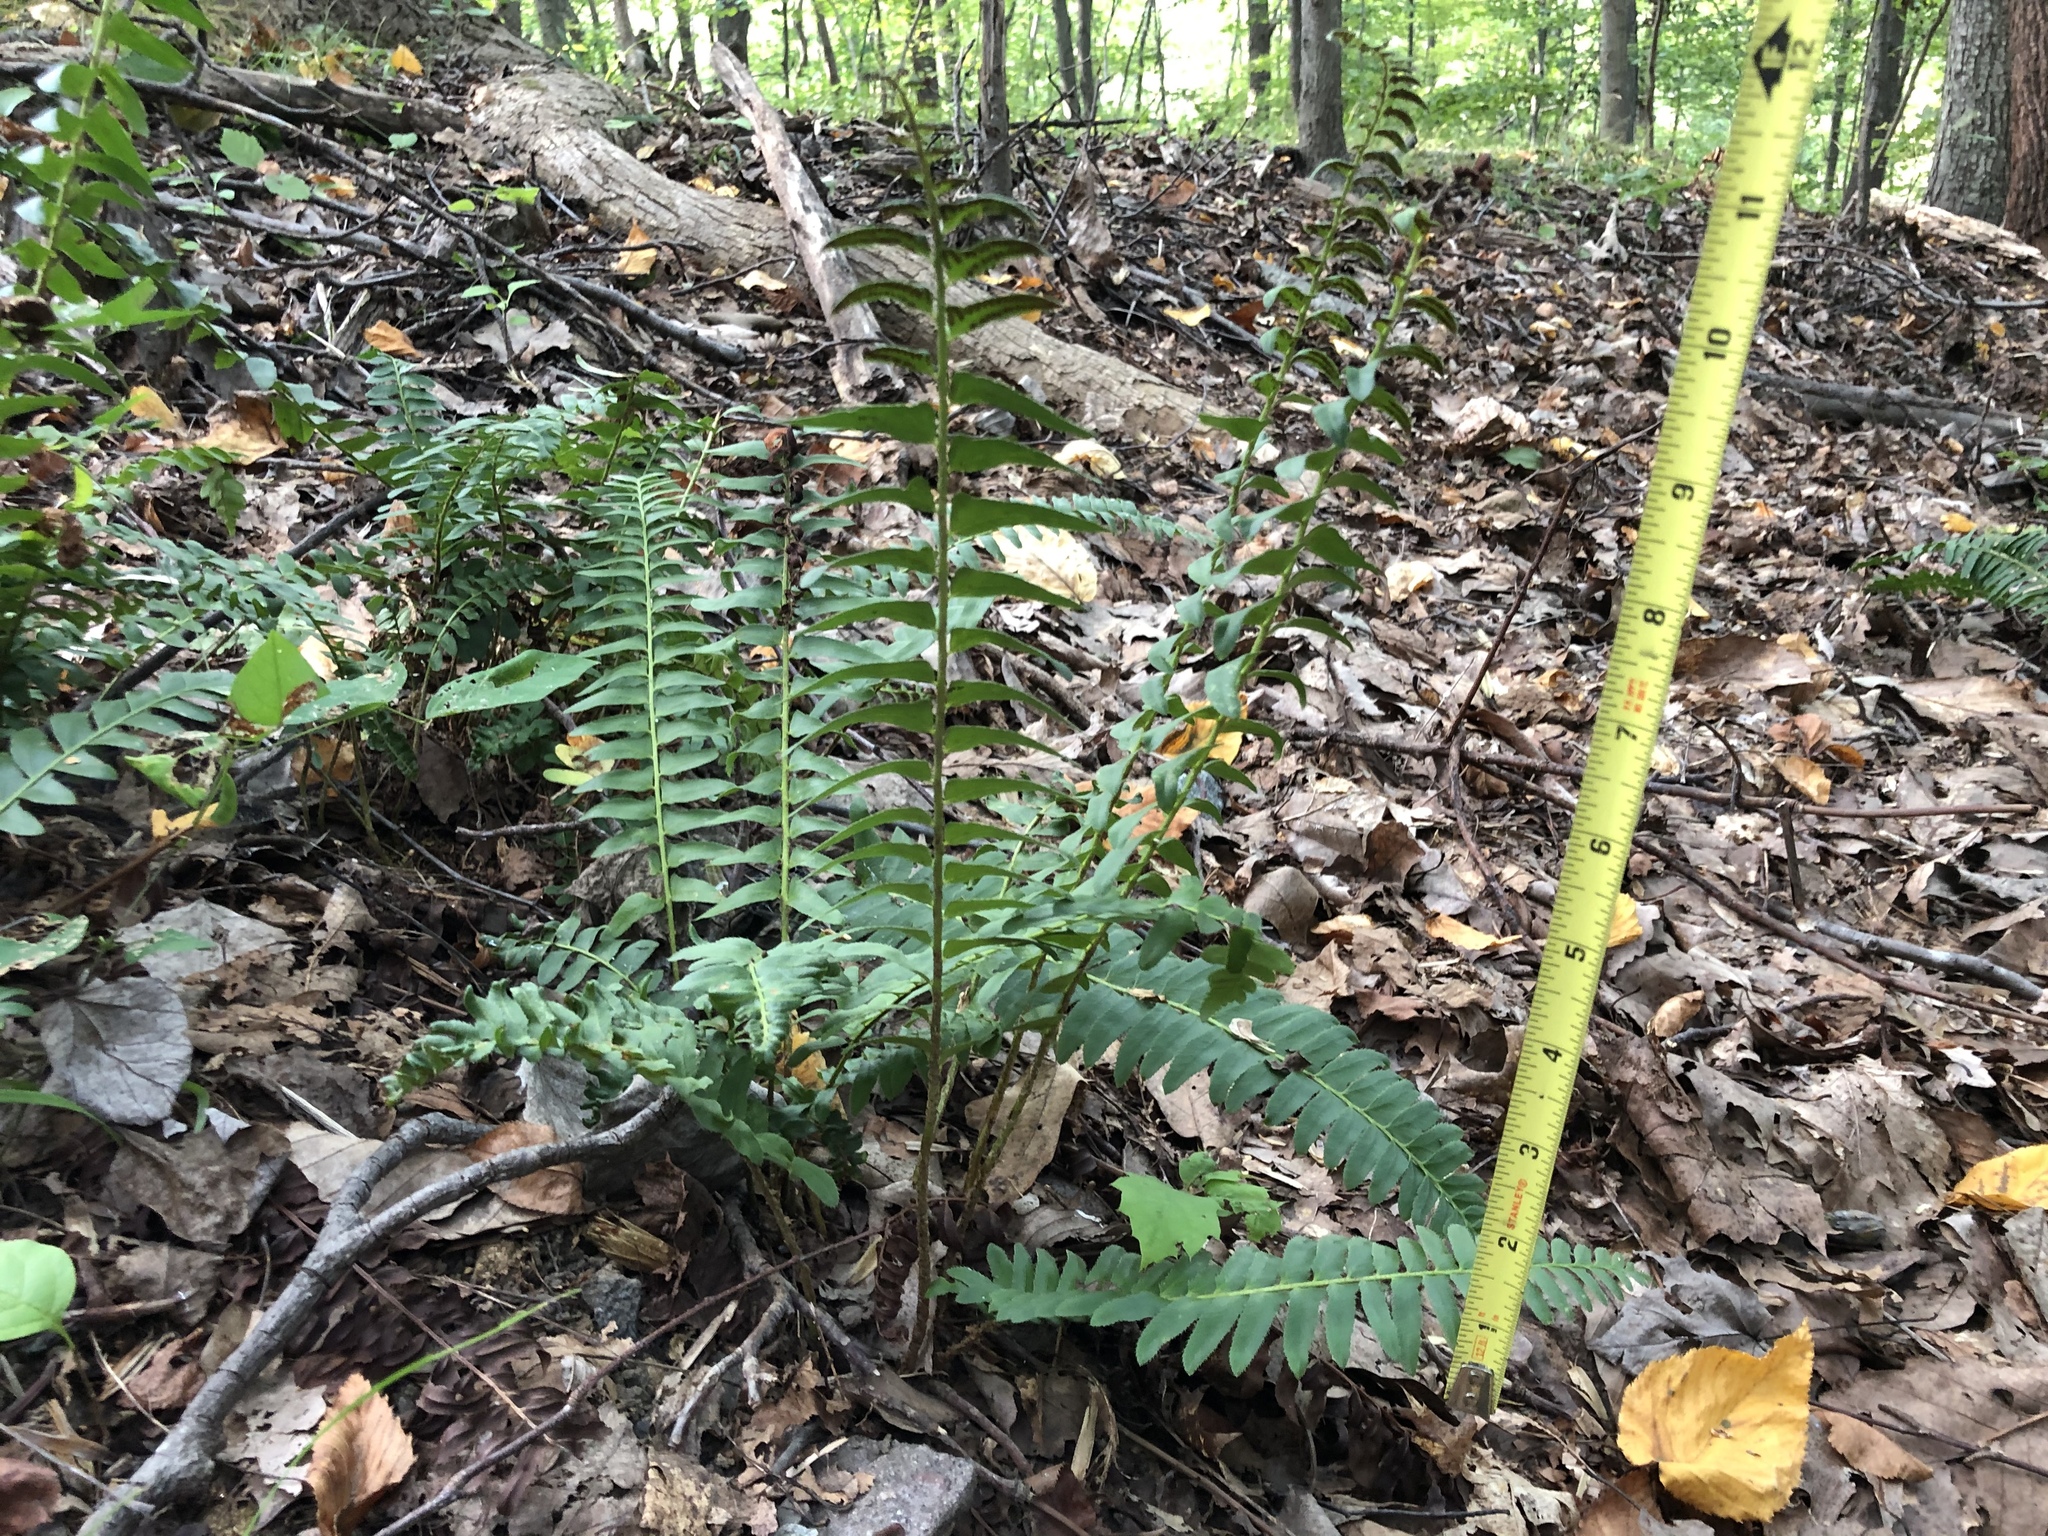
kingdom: Plantae
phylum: Tracheophyta
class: Polypodiopsida
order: Polypodiales
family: Dryopteridaceae
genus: Polystichum
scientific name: Polystichum acrostichoides
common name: Christmas fern
